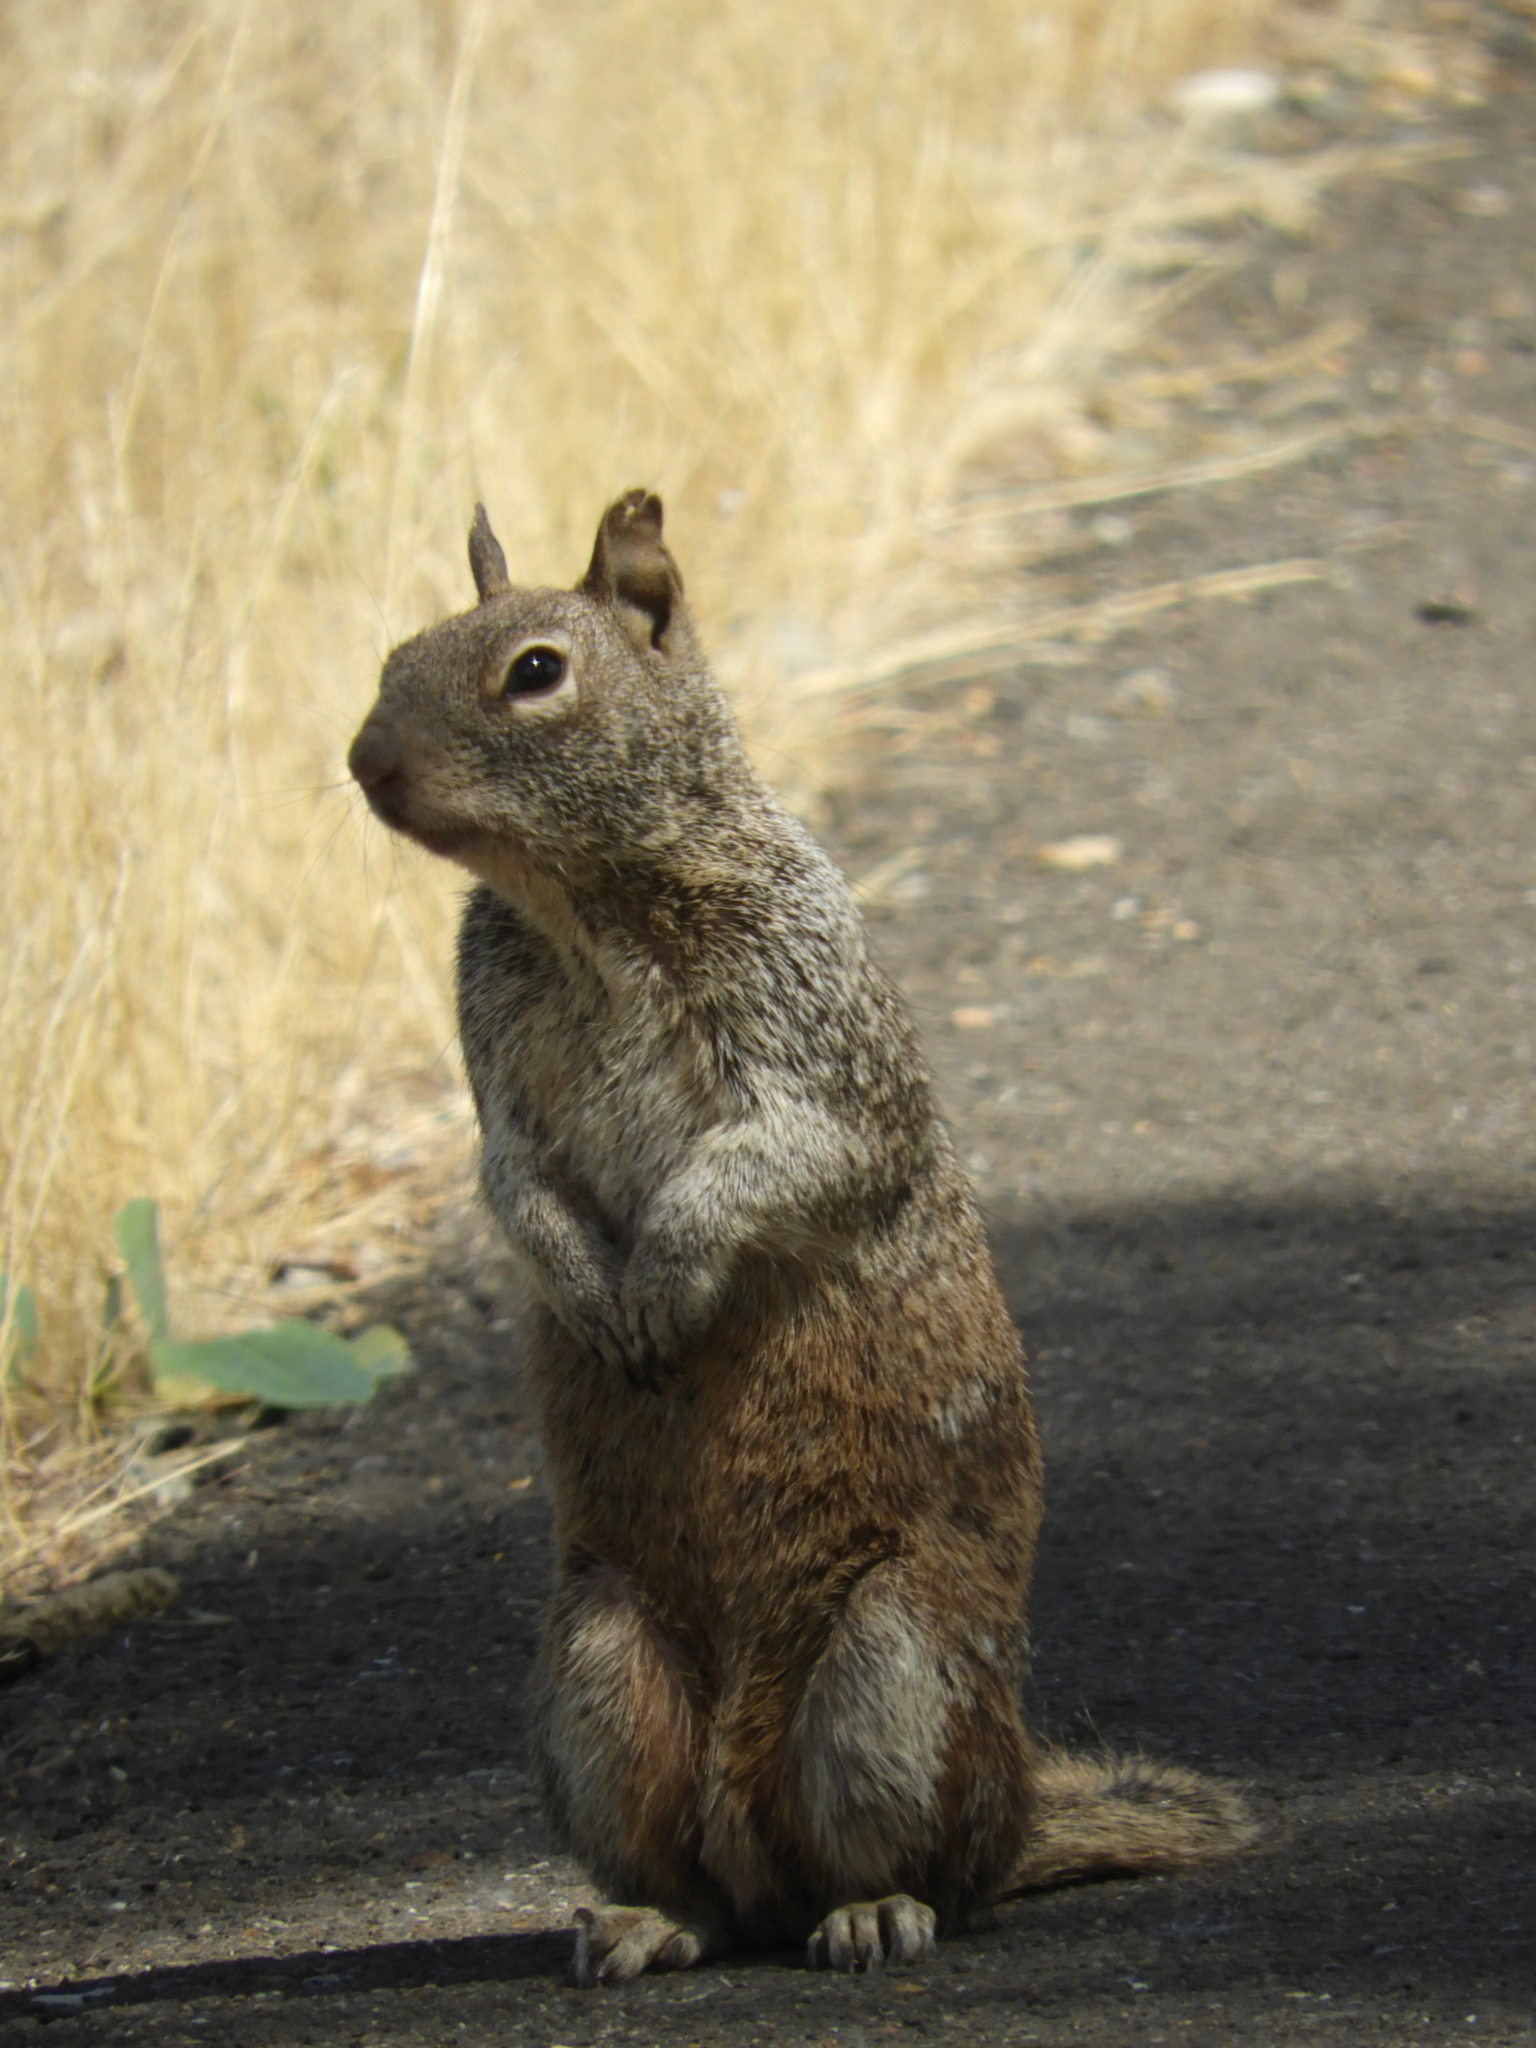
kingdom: Animalia
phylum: Chordata
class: Mammalia
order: Rodentia
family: Sciuridae
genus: Otospermophilus
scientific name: Otospermophilus beecheyi
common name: California ground squirrel
